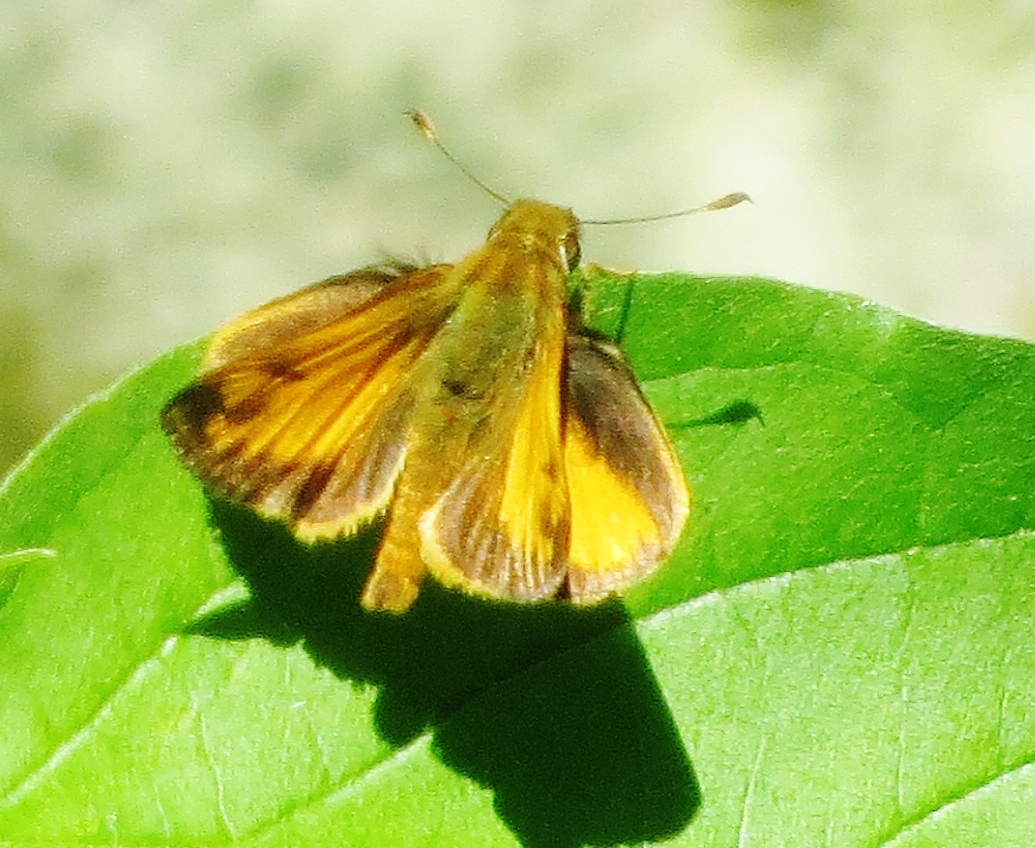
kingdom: Animalia
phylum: Arthropoda
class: Insecta
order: Lepidoptera
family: Hesperiidae
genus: Lon
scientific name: Lon zabulon
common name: Zabulon skipper
